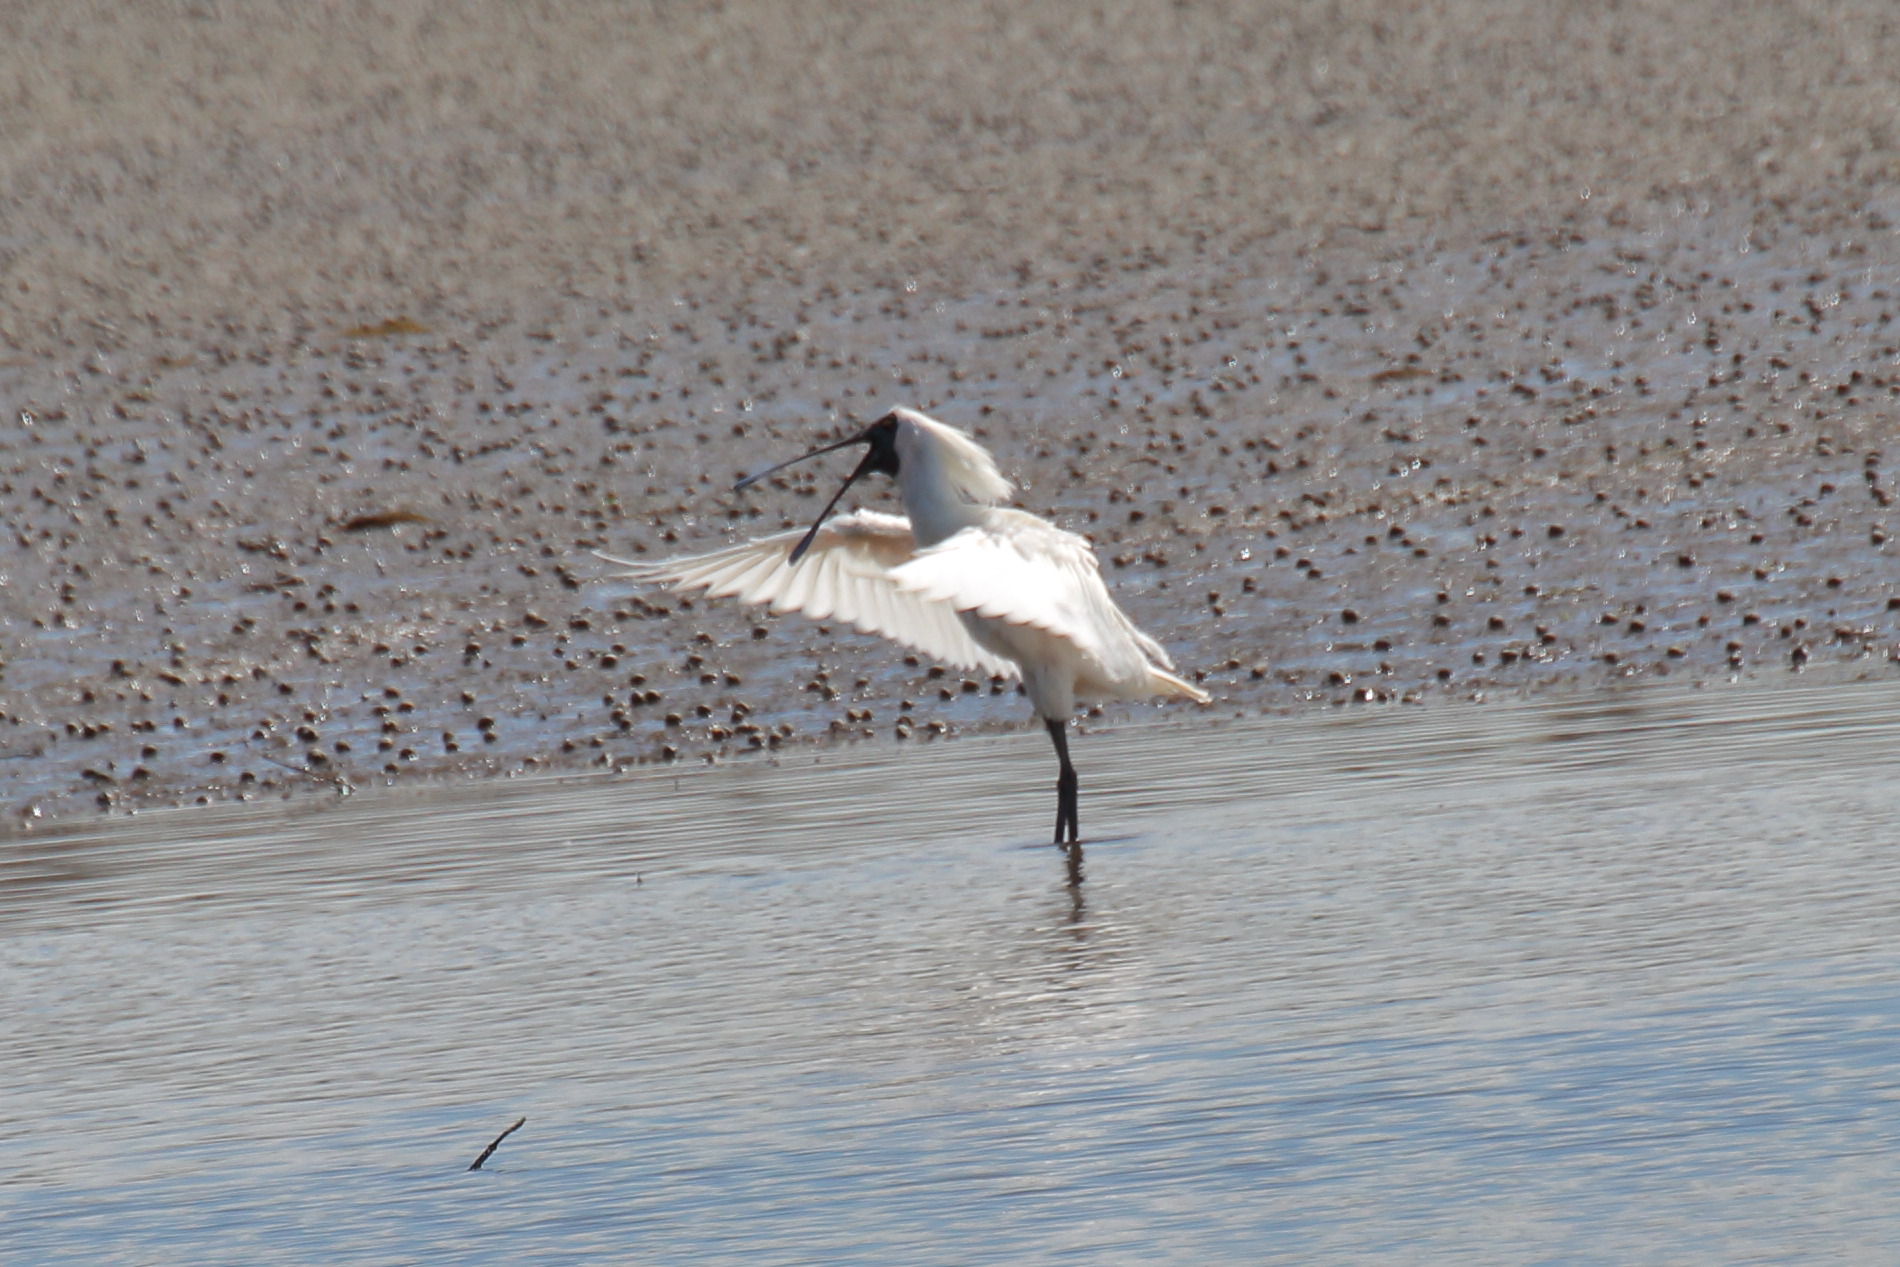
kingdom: Animalia
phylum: Chordata
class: Aves
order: Pelecaniformes
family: Threskiornithidae
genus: Platalea
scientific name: Platalea regia
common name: Royal spoonbill
